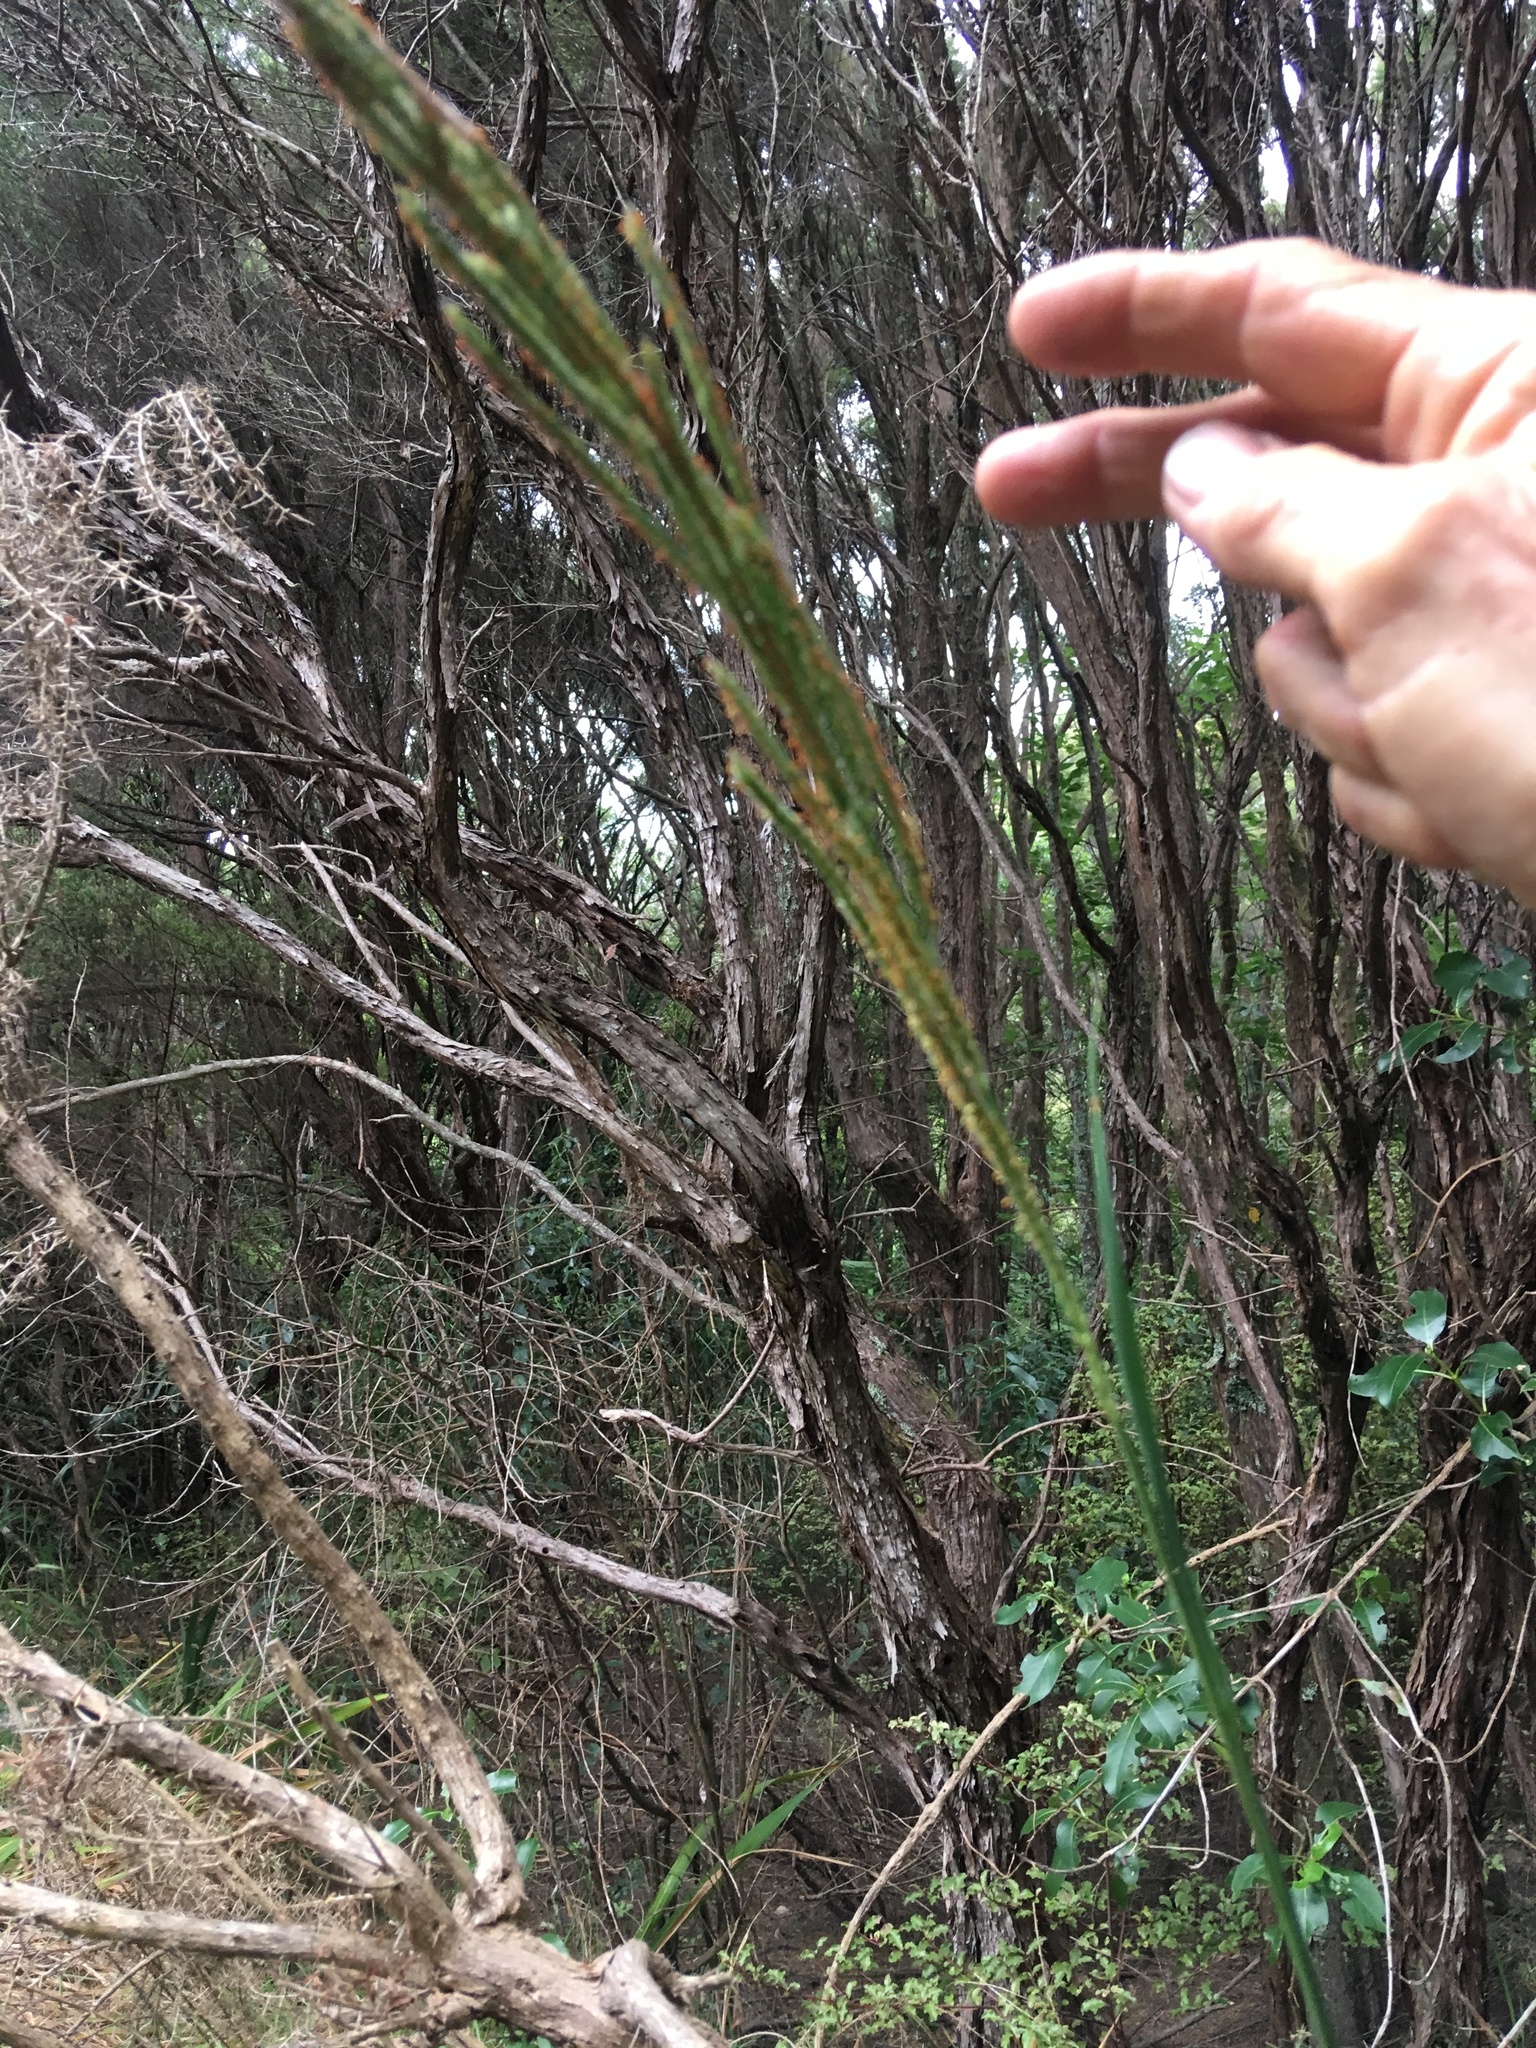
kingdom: Plantae
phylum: Tracheophyta
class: Liliopsida
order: Poales
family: Poaceae
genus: Paspalum
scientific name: Paspalum urvillei
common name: Vasey's grass
